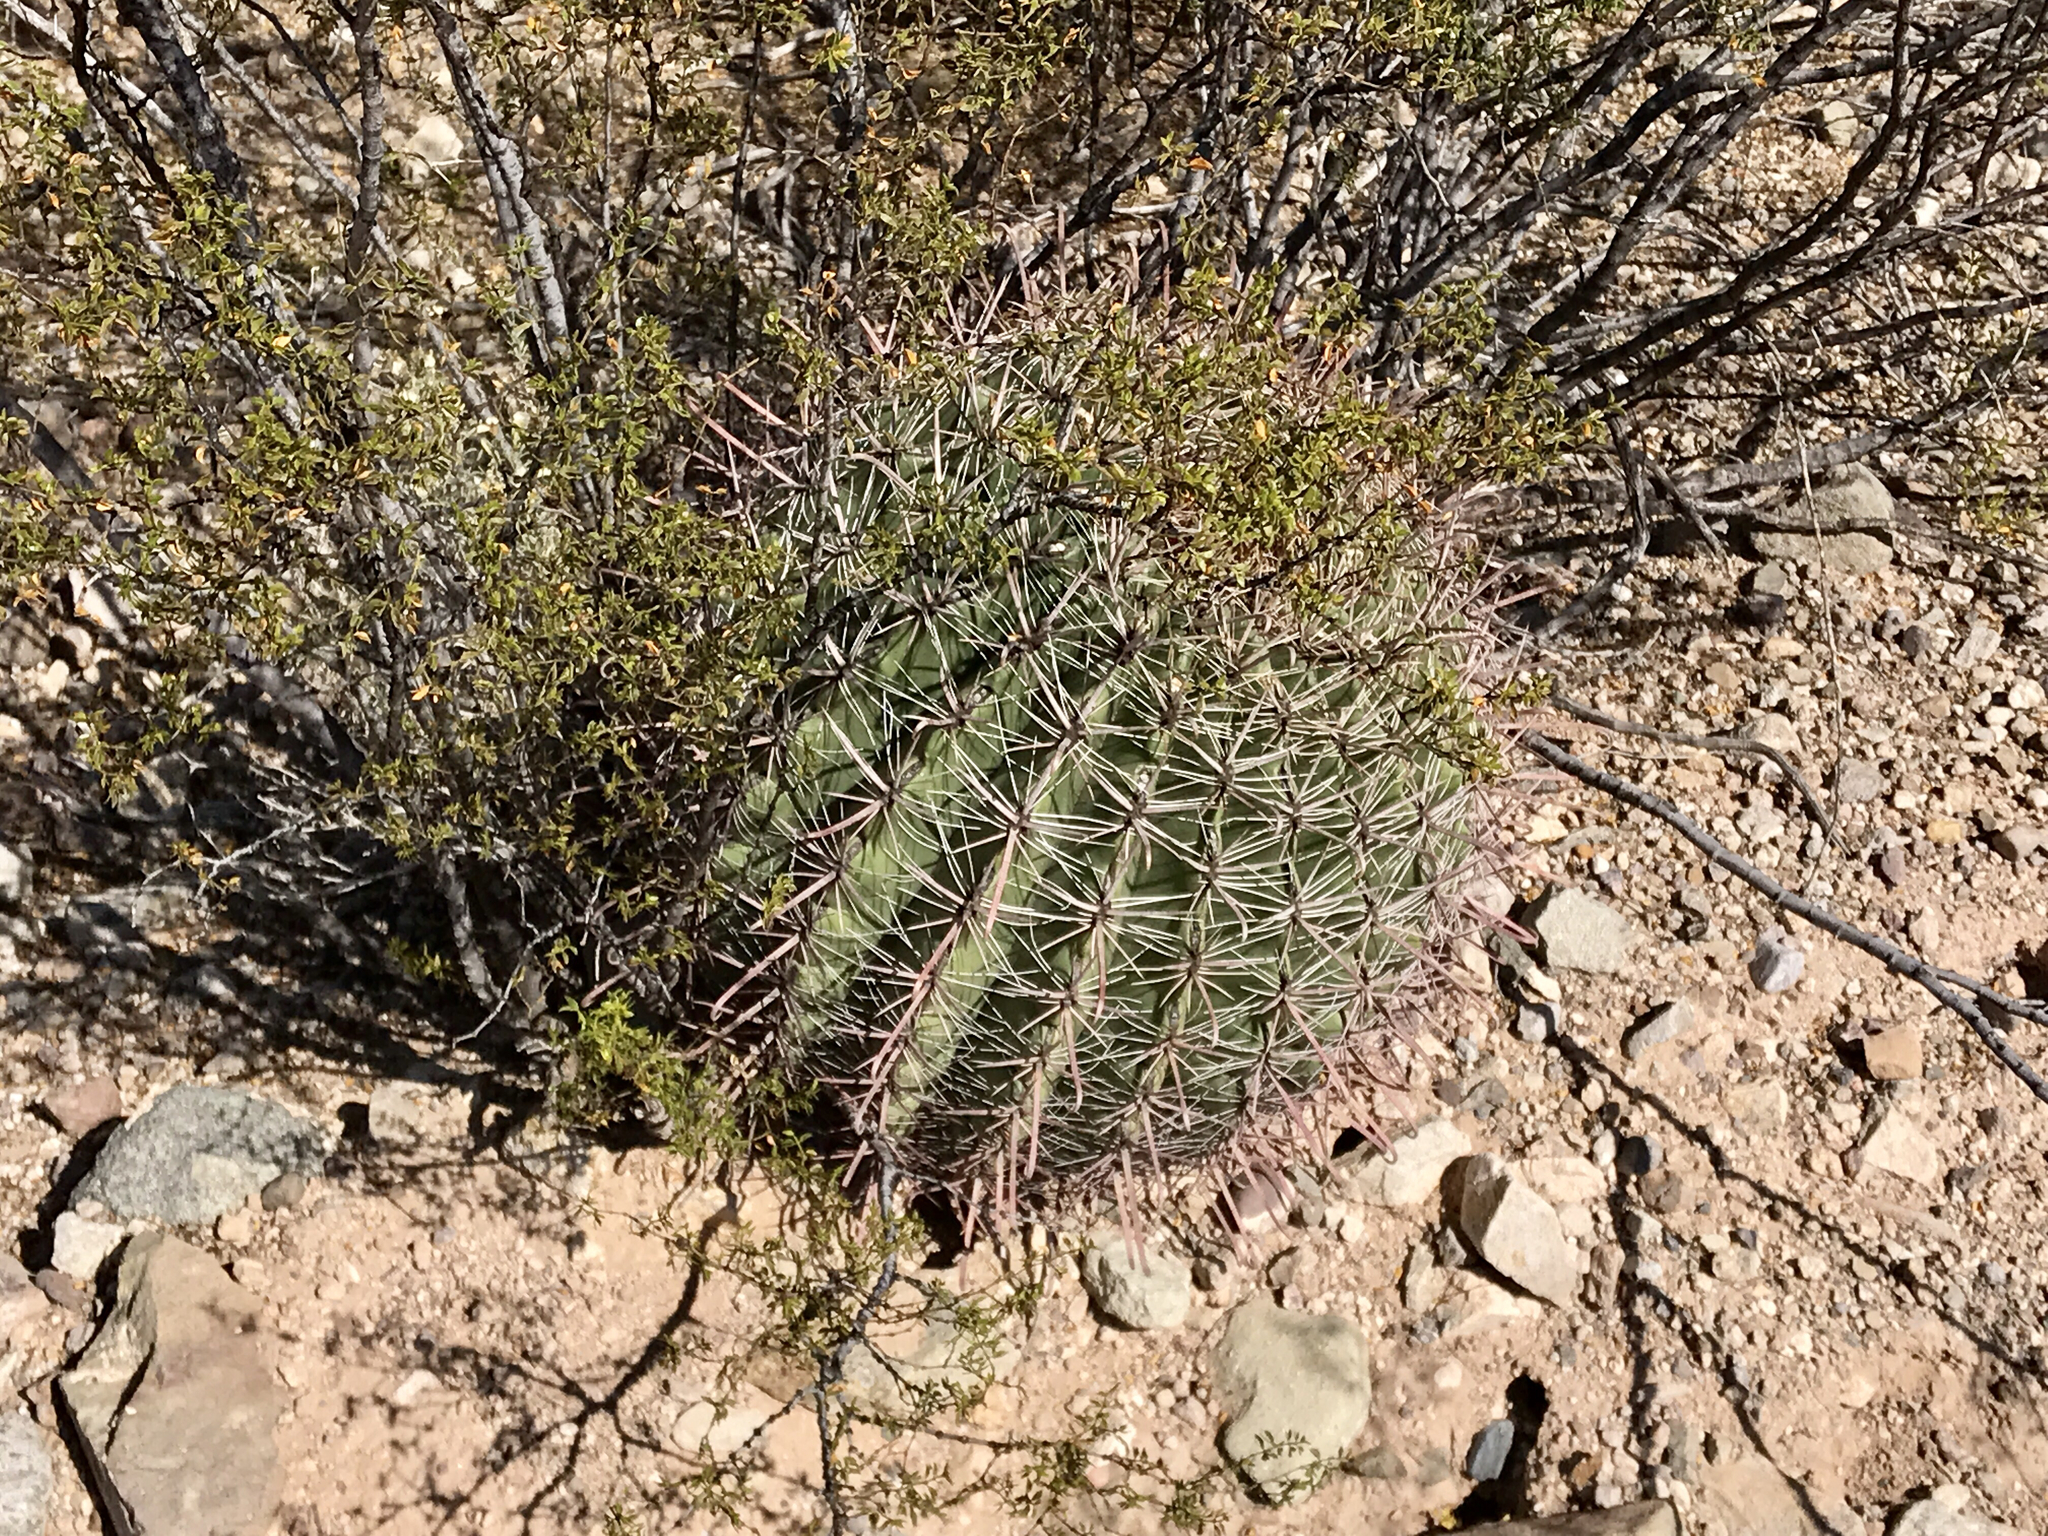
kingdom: Plantae
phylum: Tracheophyta
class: Magnoliopsida
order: Caryophyllales
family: Cactaceae
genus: Ferocactus
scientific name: Ferocactus wislizeni
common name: Candy barrel cactus
